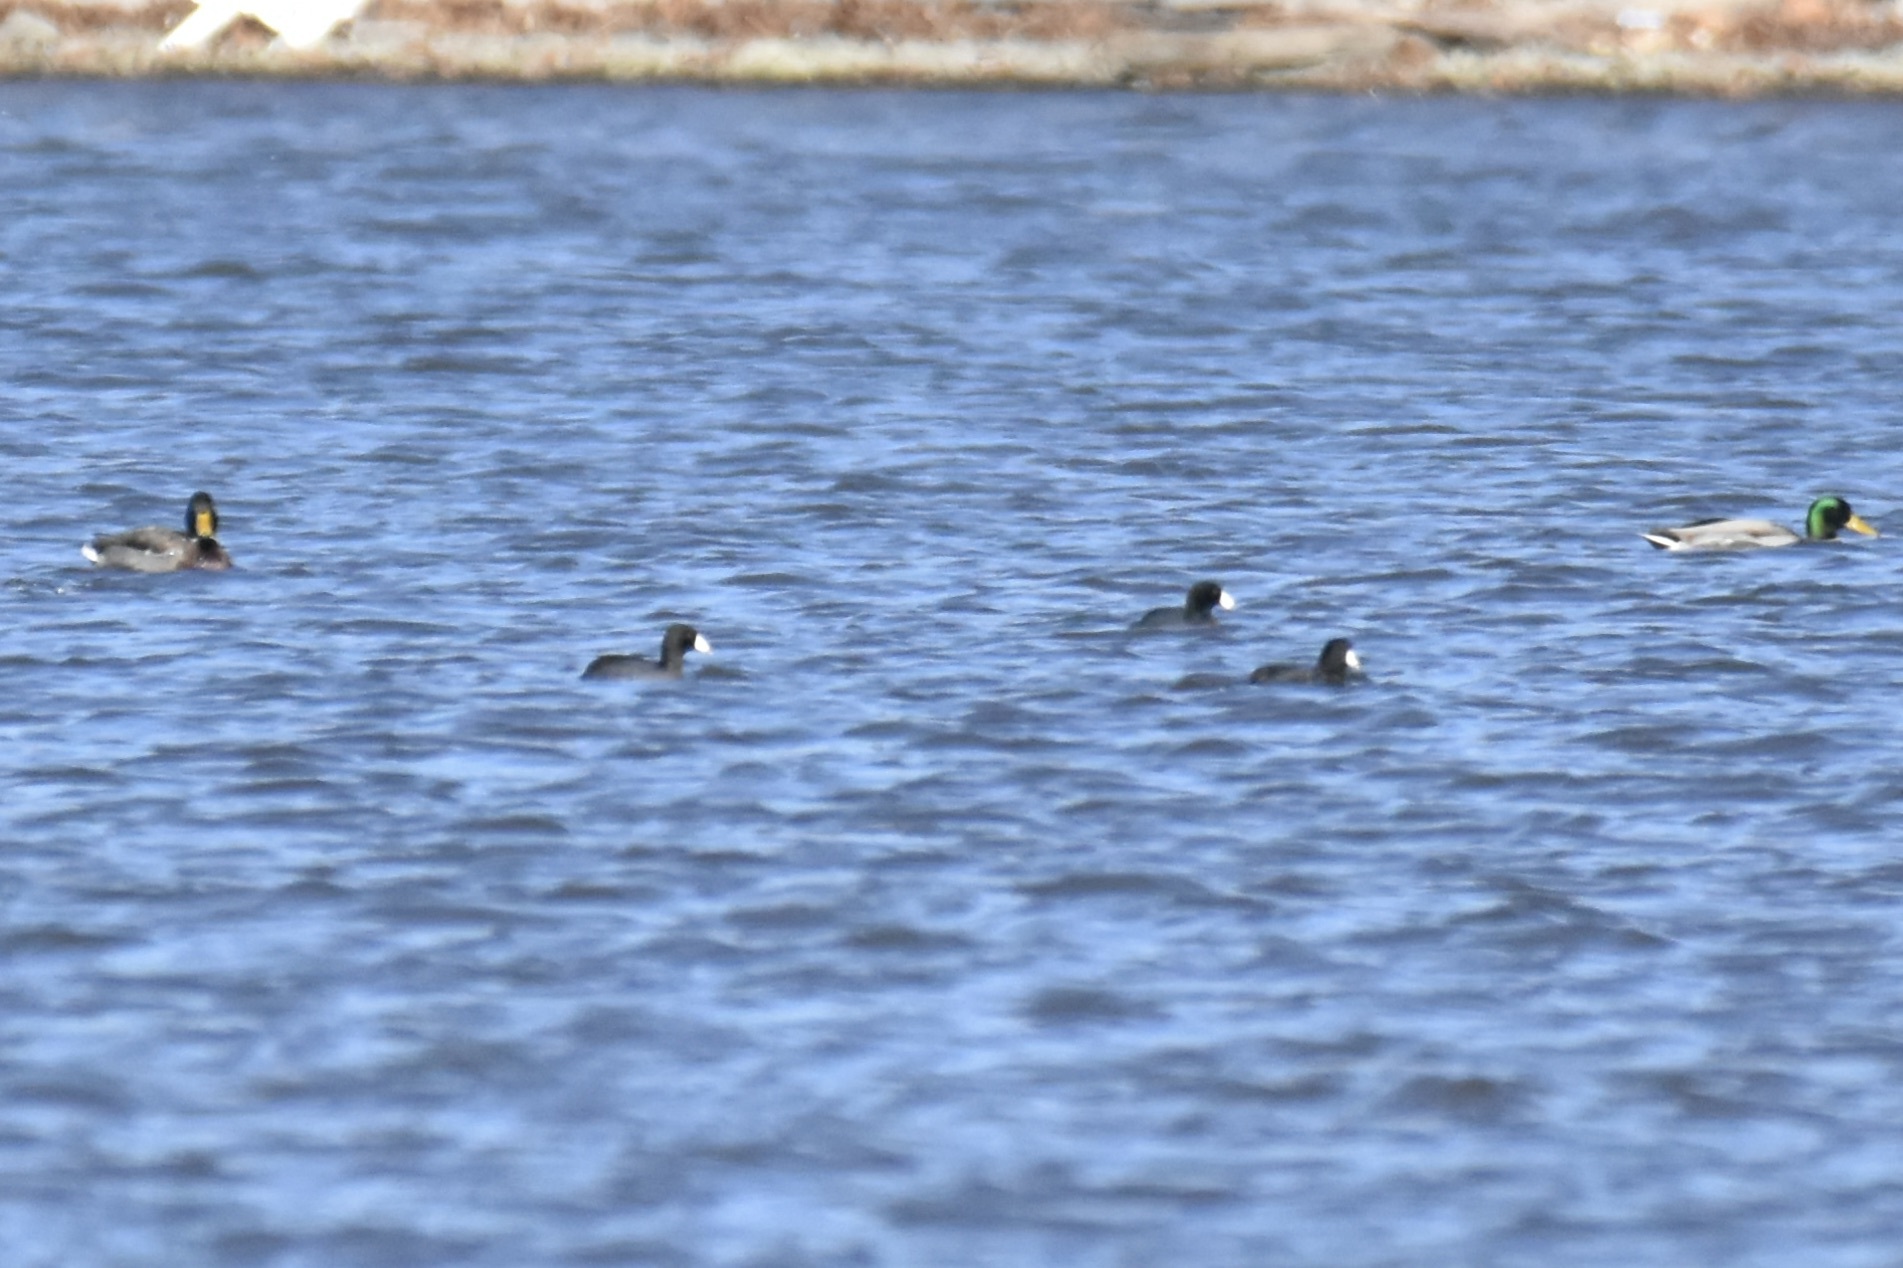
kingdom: Animalia
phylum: Chordata
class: Aves
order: Gruiformes
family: Rallidae
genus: Fulica
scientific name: Fulica americana
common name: American coot
